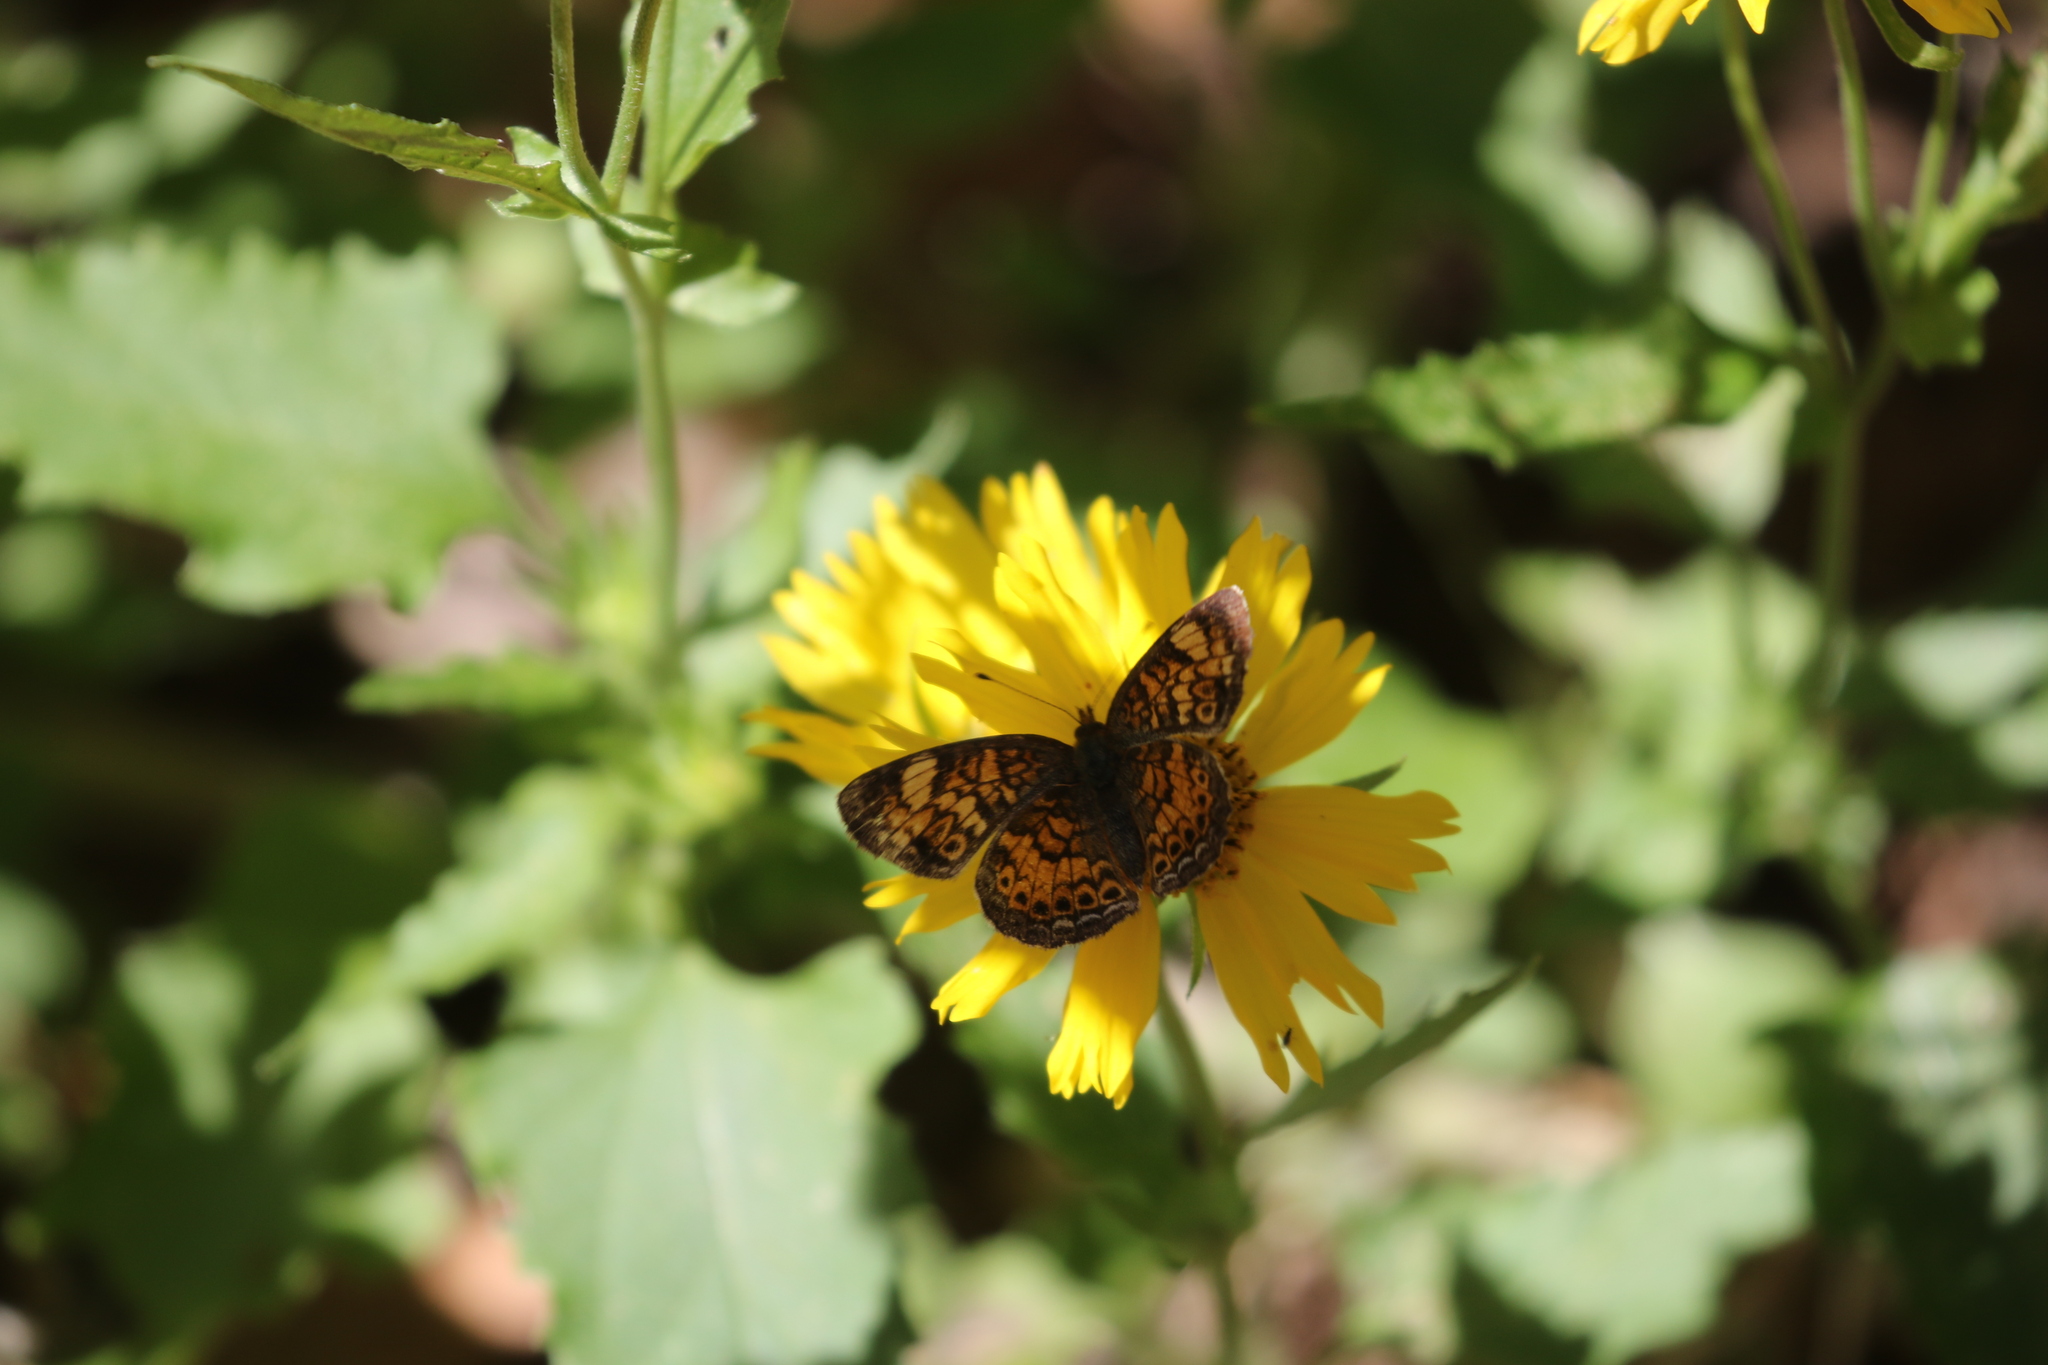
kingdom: Animalia
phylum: Arthropoda
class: Insecta
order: Lepidoptera
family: Nymphalidae
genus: Phyciodes
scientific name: Phyciodes tharos
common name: Pearl crescent
